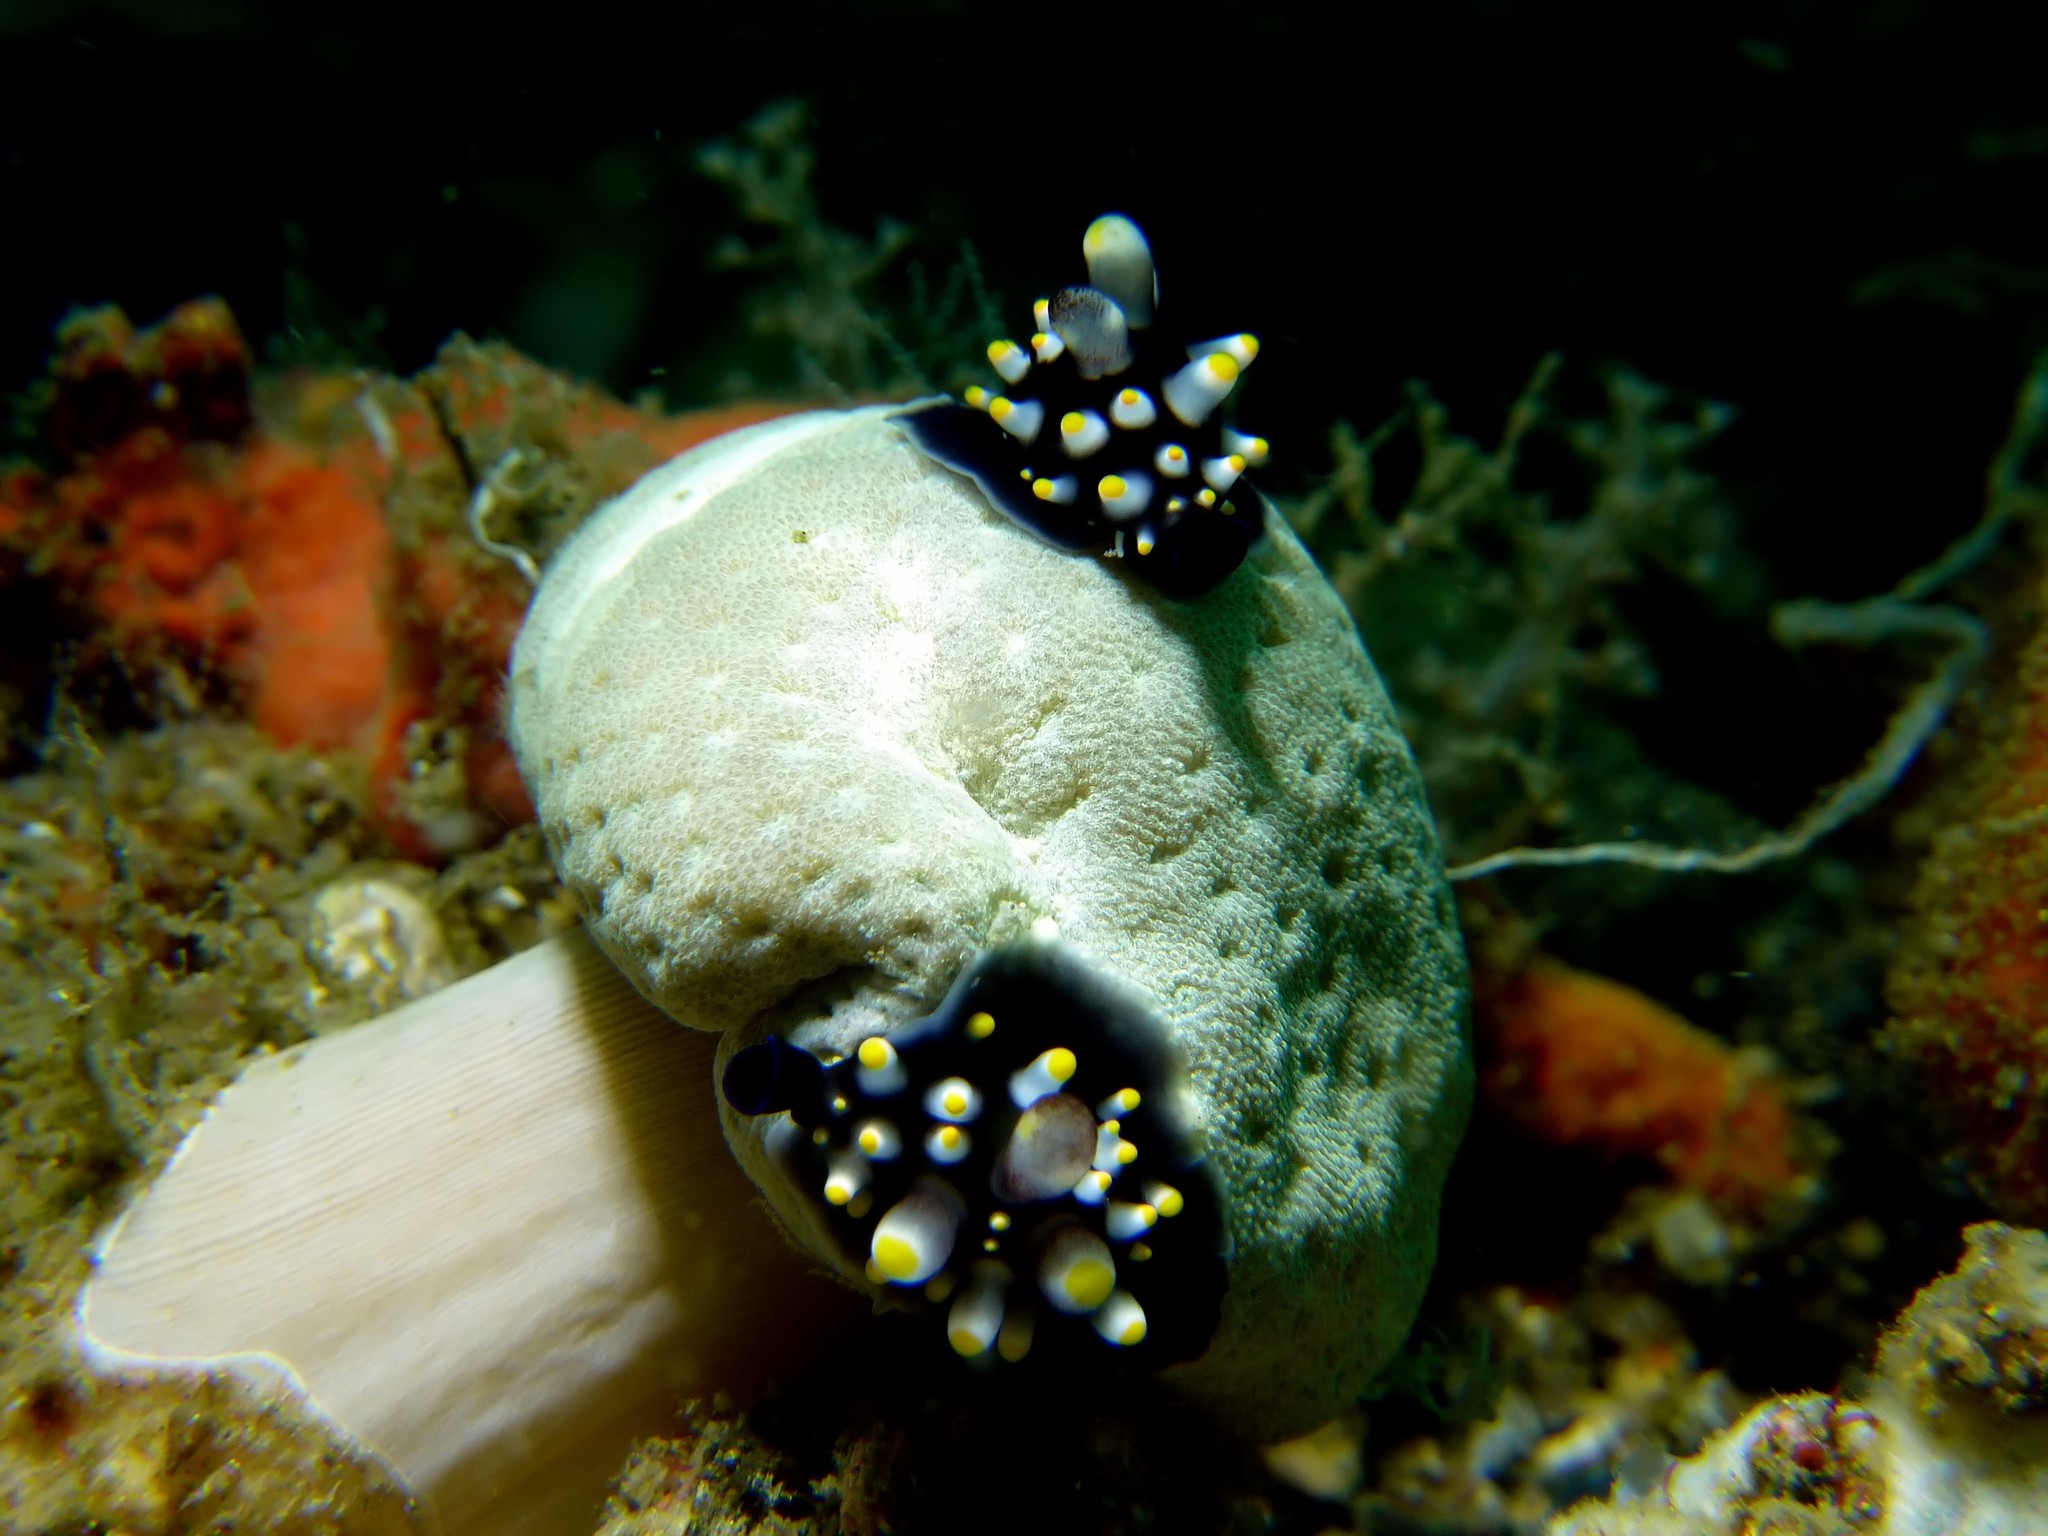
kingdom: Animalia
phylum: Mollusca
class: Gastropoda
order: Littorinimorpha
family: Ovulidae
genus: Ovula
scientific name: Ovula ovum
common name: Common egg cowrie
